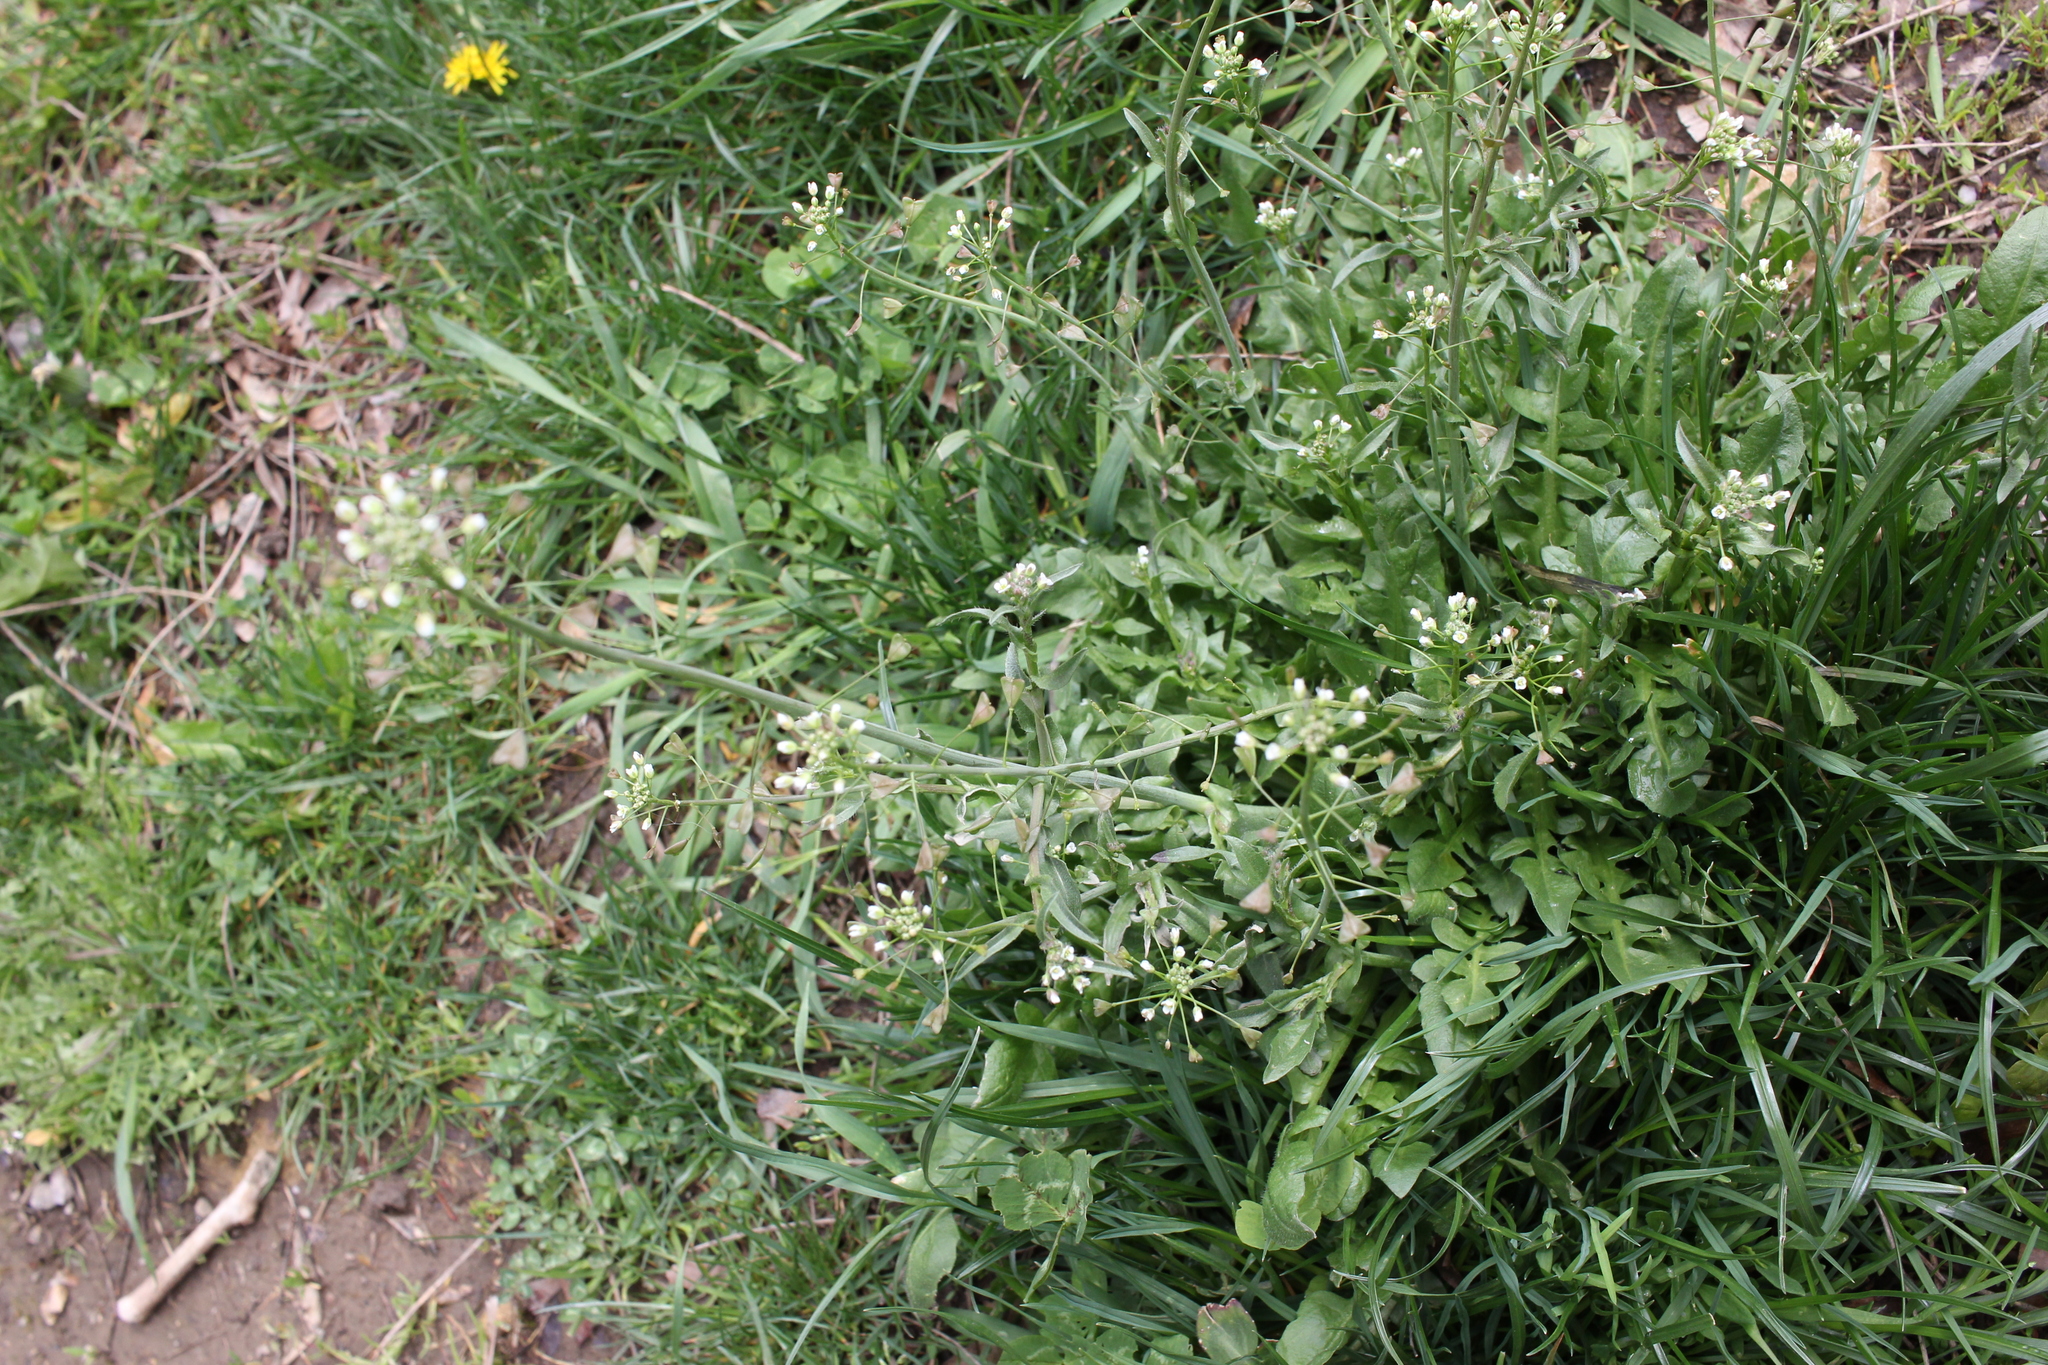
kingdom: Plantae
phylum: Tracheophyta
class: Magnoliopsida
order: Brassicales
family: Brassicaceae
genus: Capsella
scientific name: Capsella bursa-pastoris
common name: Shepherd's purse
